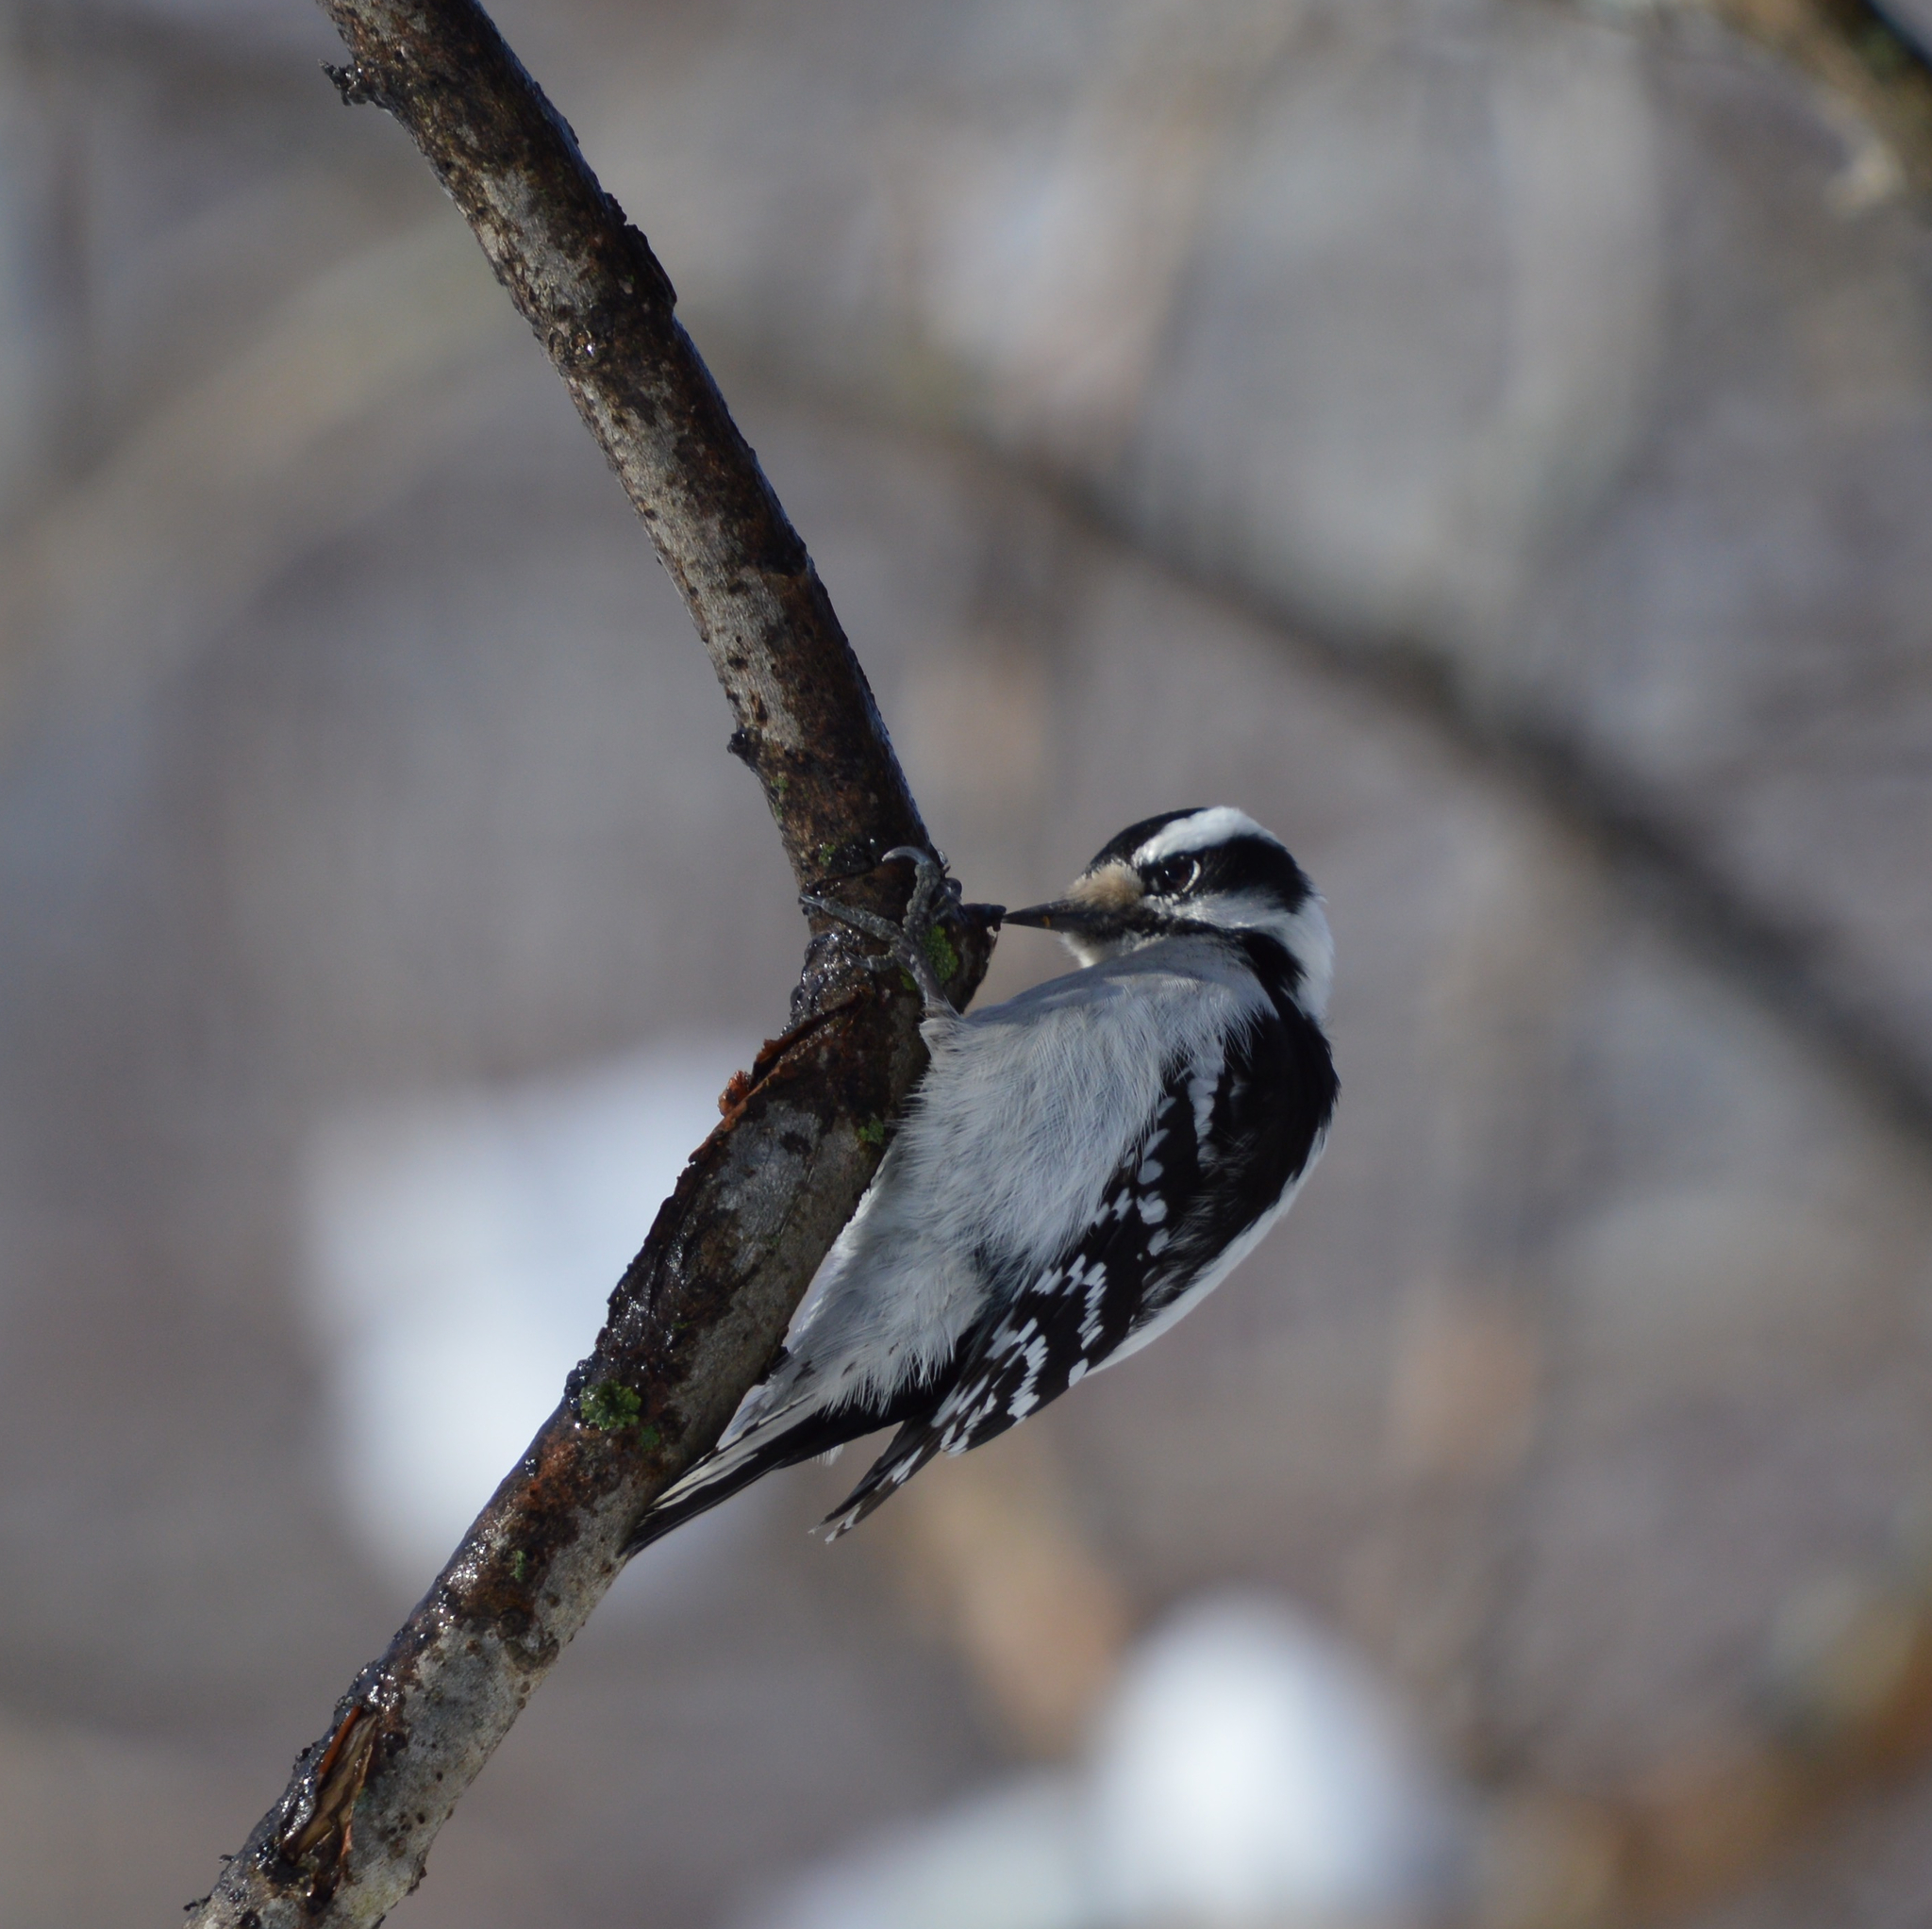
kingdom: Animalia
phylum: Chordata
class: Aves
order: Piciformes
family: Picidae
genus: Dryobates
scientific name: Dryobates pubescens
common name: Downy woodpecker
